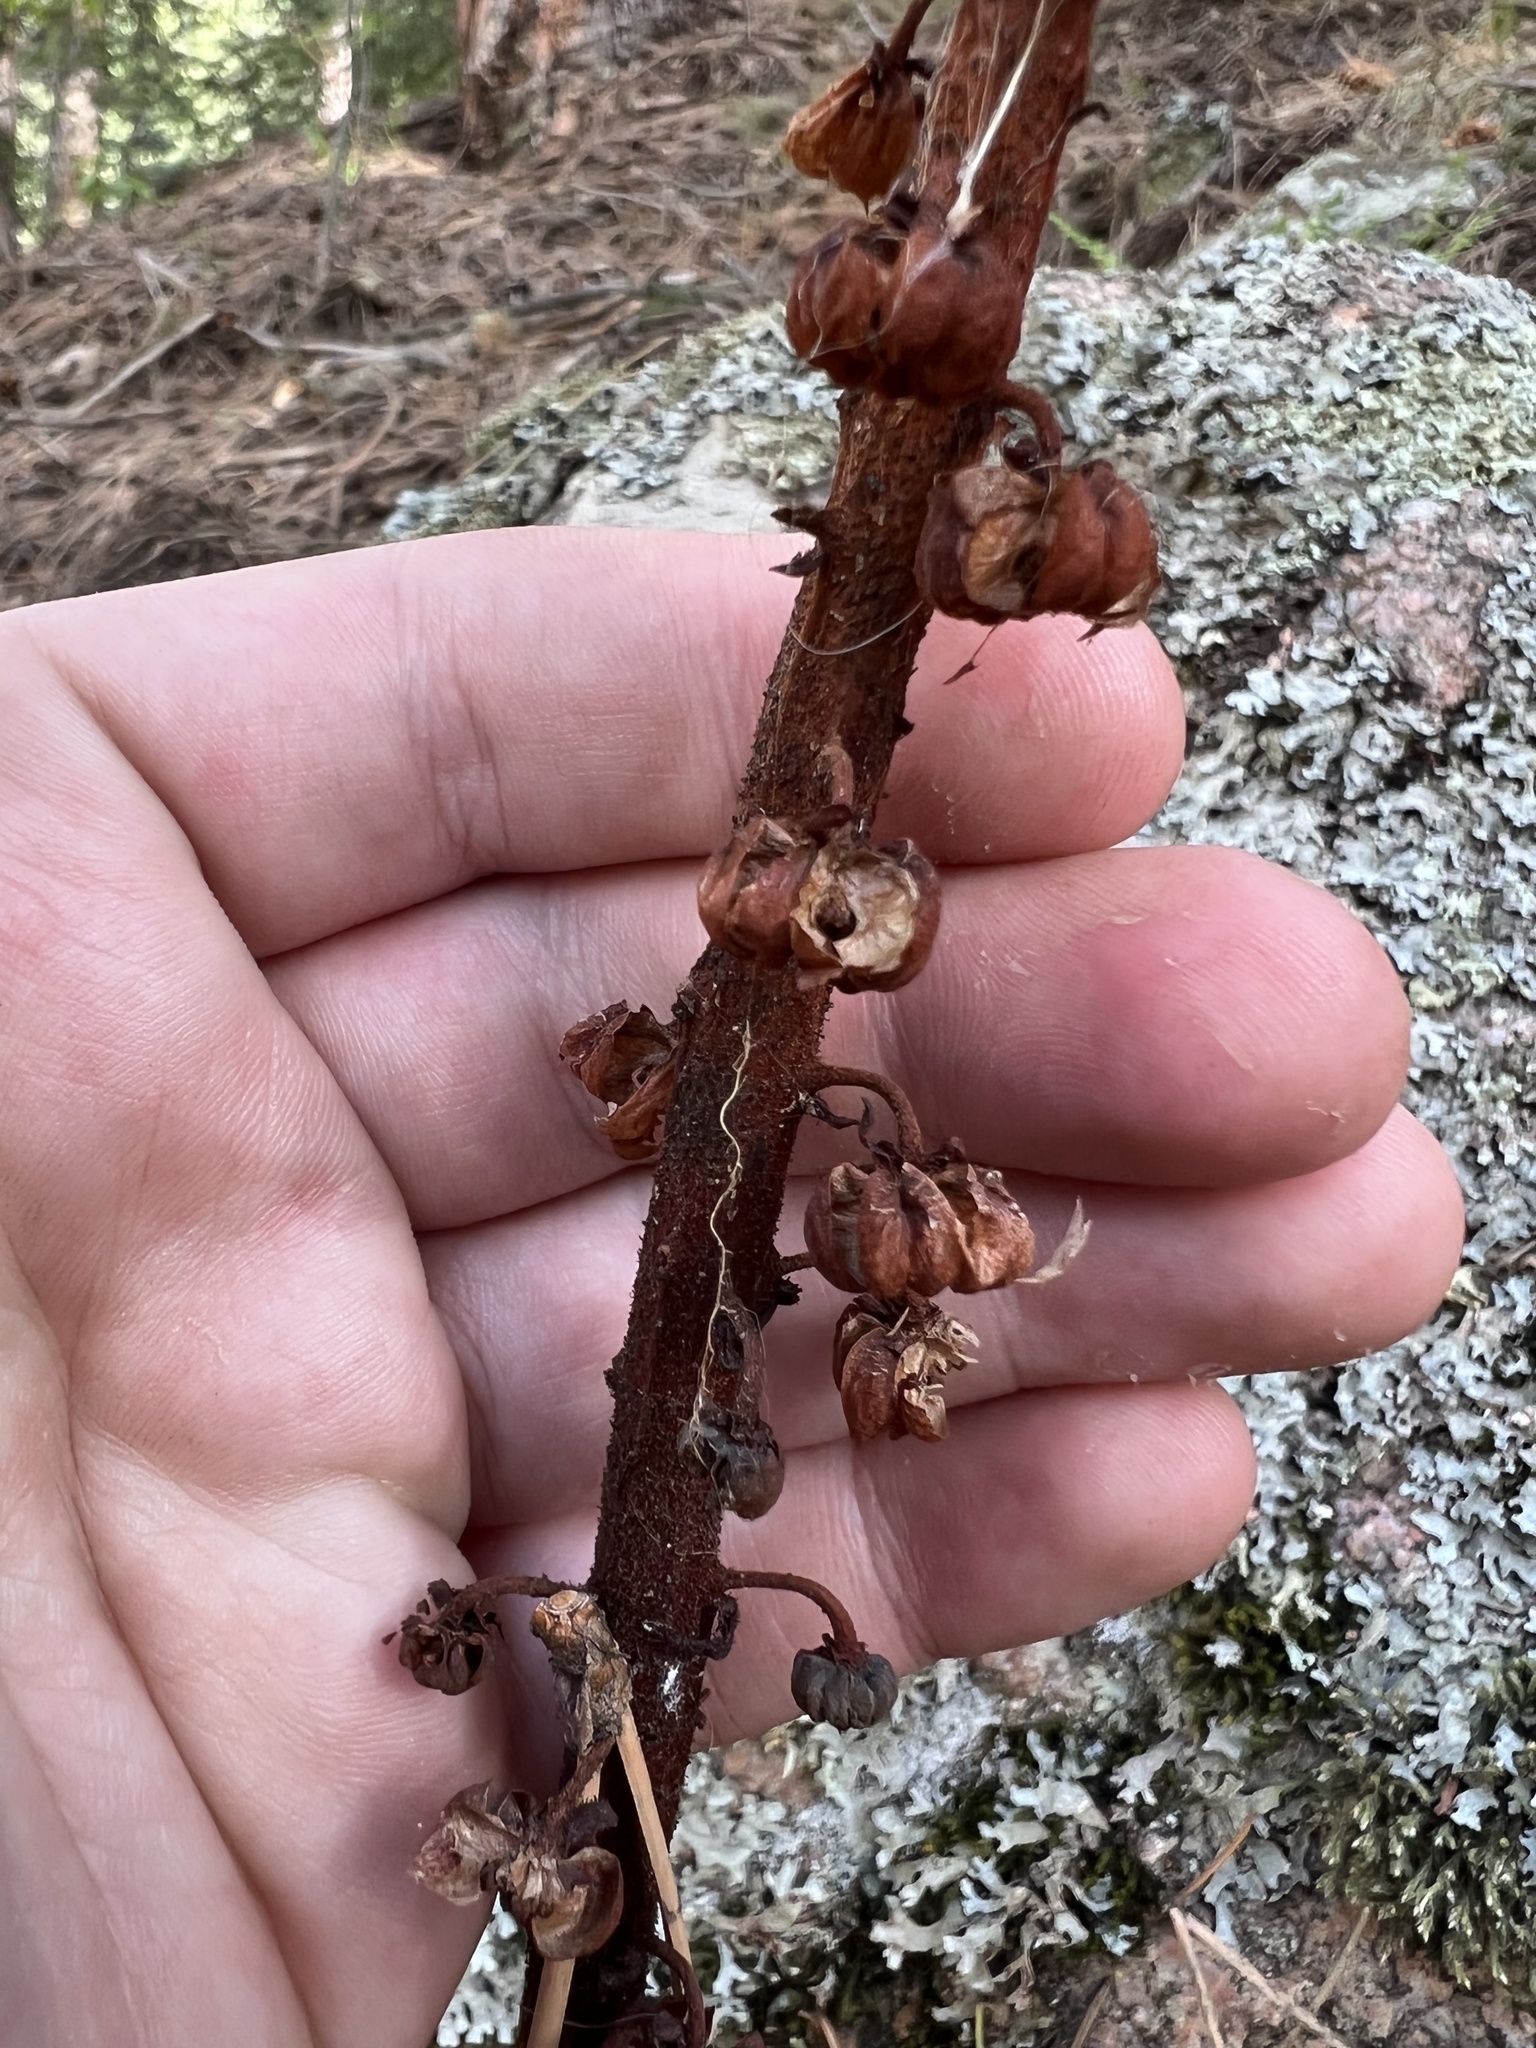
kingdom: Plantae
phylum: Tracheophyta
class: Magnoliopsida
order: Ericales
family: Ericaceae
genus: Pterospora
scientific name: Pterospora andromedea
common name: Giant bird's-nest
